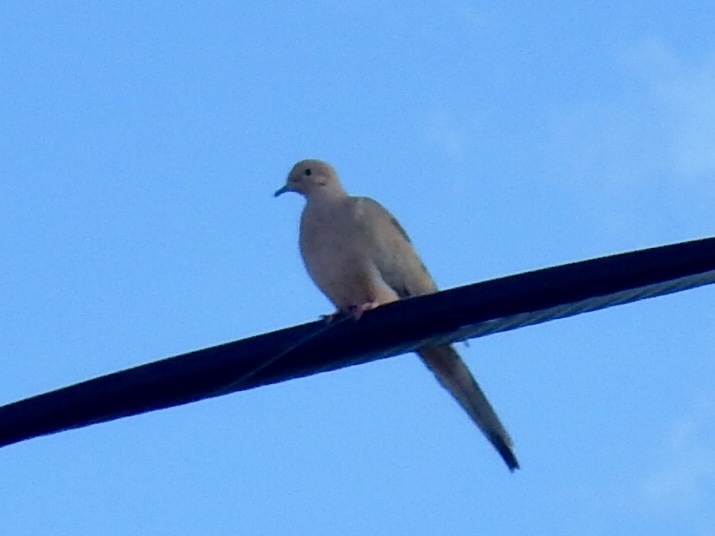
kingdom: Animalia
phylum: Chordata
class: Aves
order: Columbiformes
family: Columbidae
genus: Zenaida
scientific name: Zenaida macroura
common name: Mourning dove
